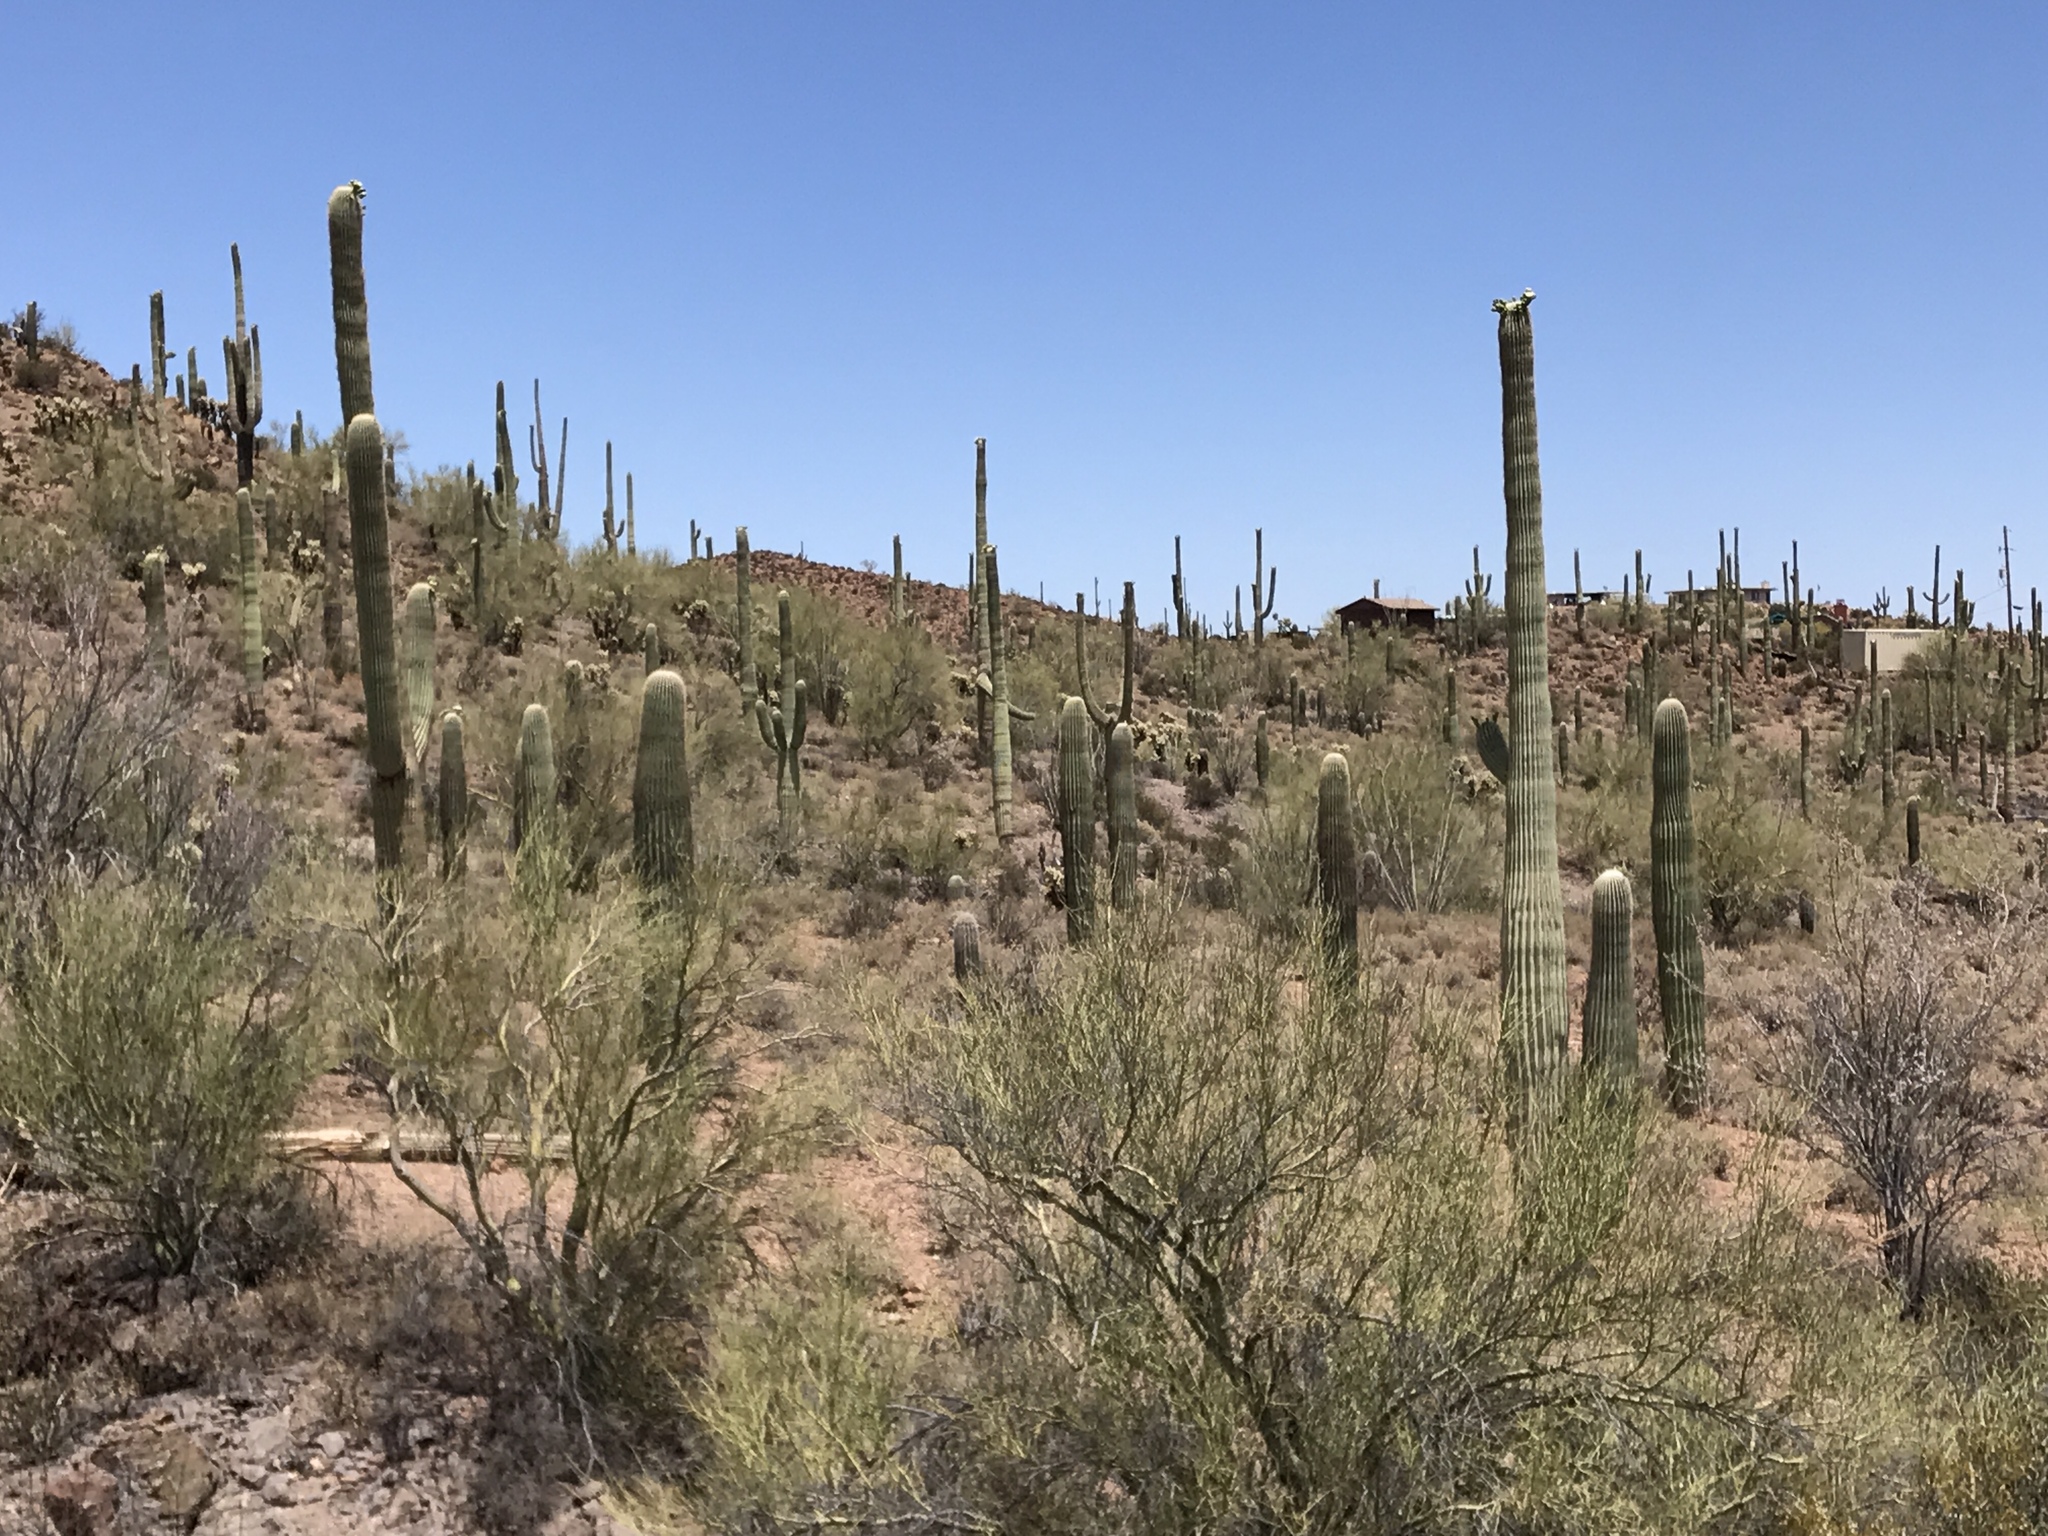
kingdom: Plantae
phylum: Tracheophyta
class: Magnoliopsida
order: Caryophyllales
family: Cactaceae
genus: Carnegiea
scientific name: Carnegiea gigantea
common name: Saguaro
